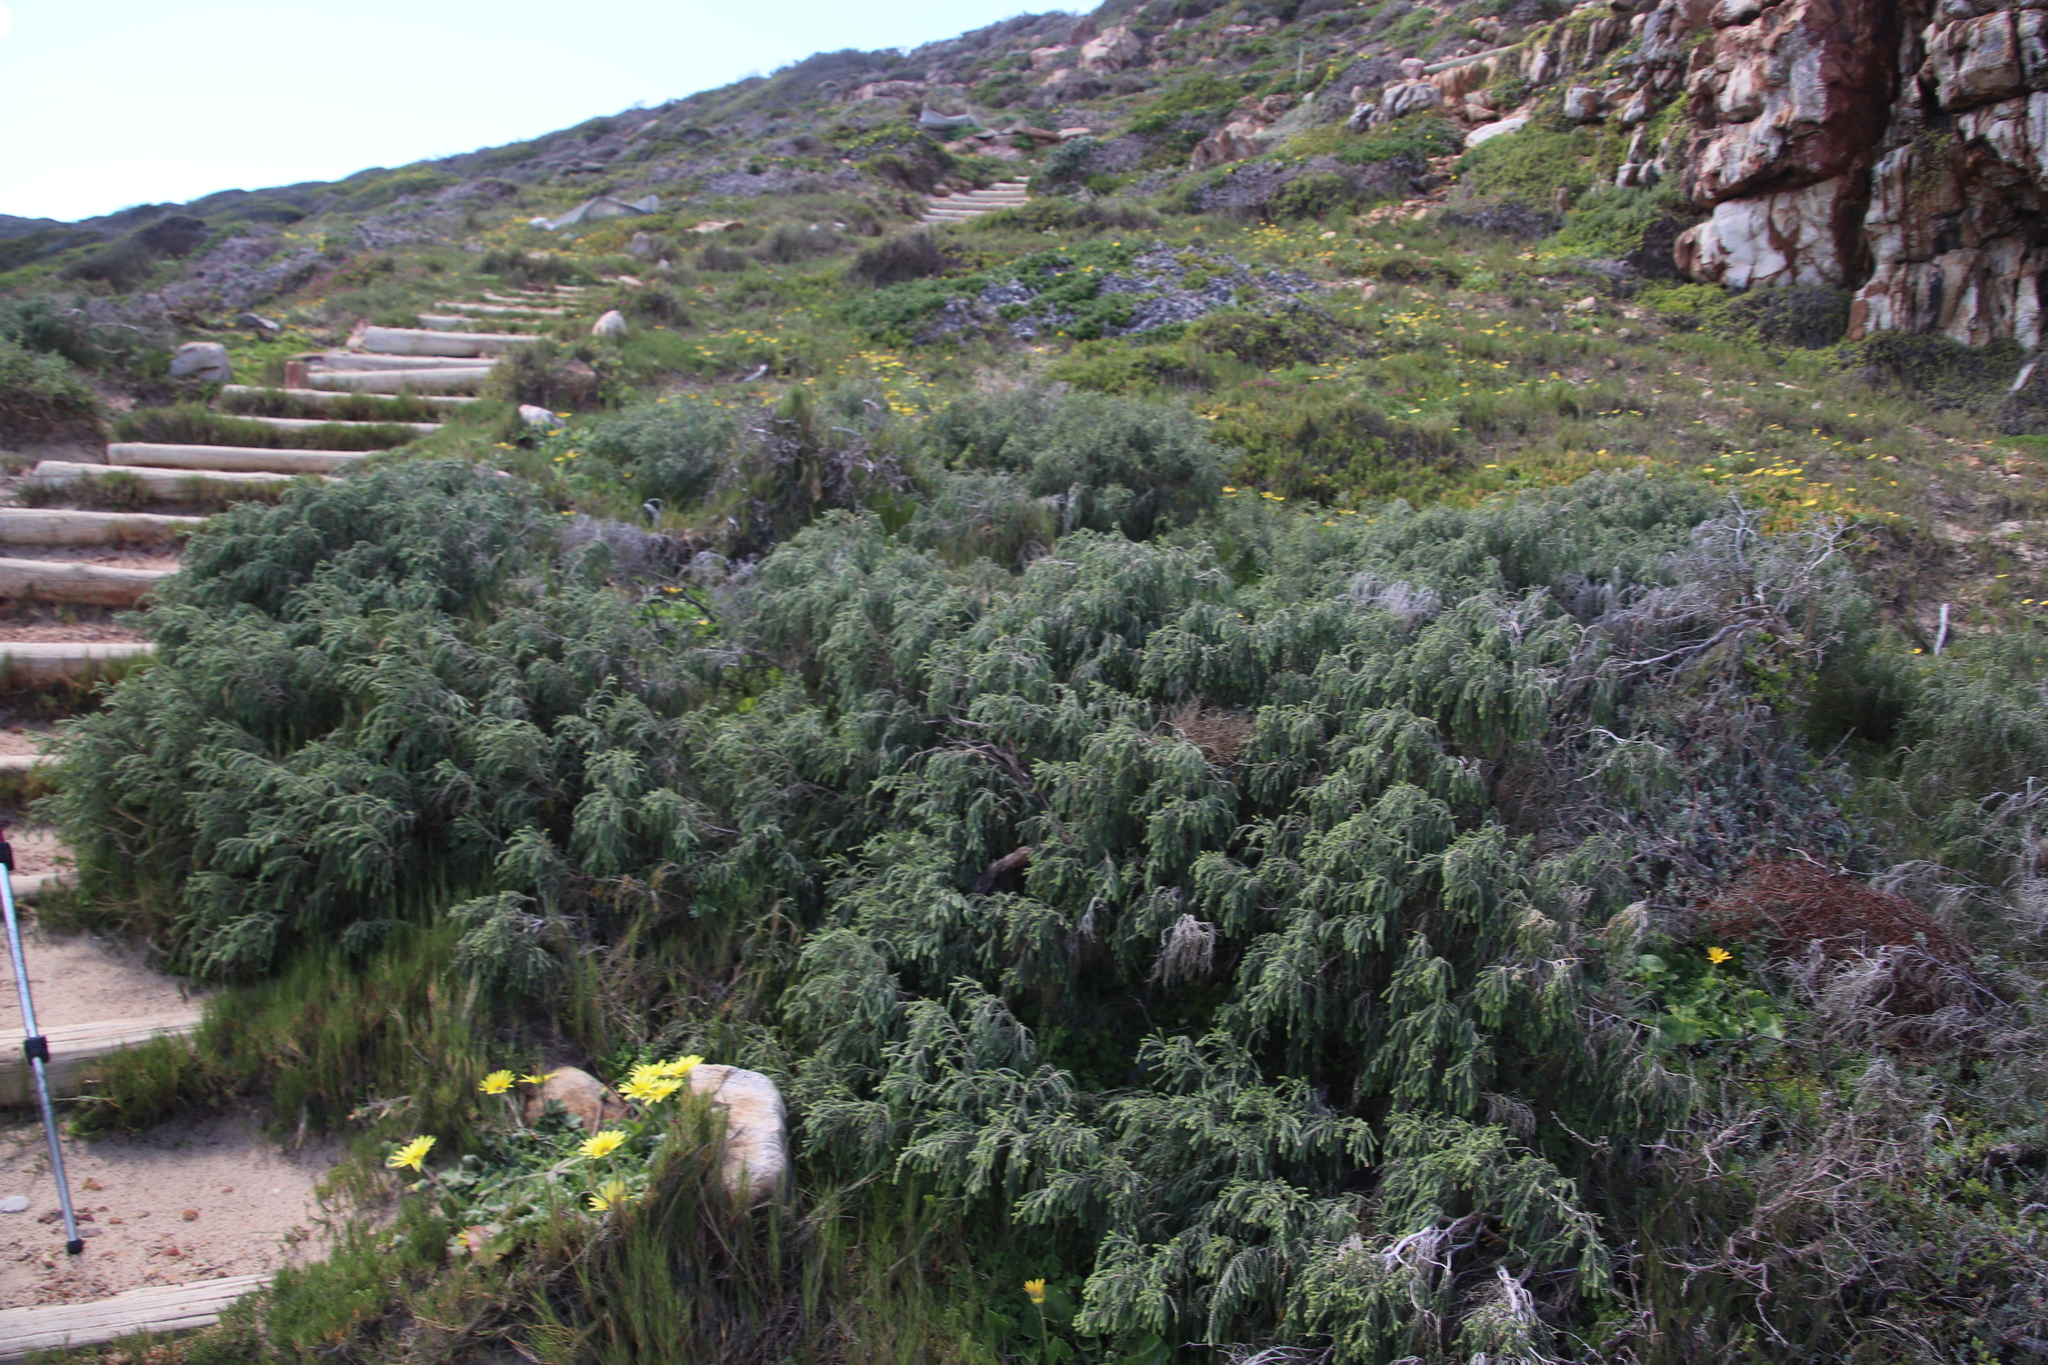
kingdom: Plantae
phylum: Tracheophyta
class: Magnoliopsida
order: Malvales
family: Thymelaeaceae
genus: Passerina
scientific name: Passerina ericoides
